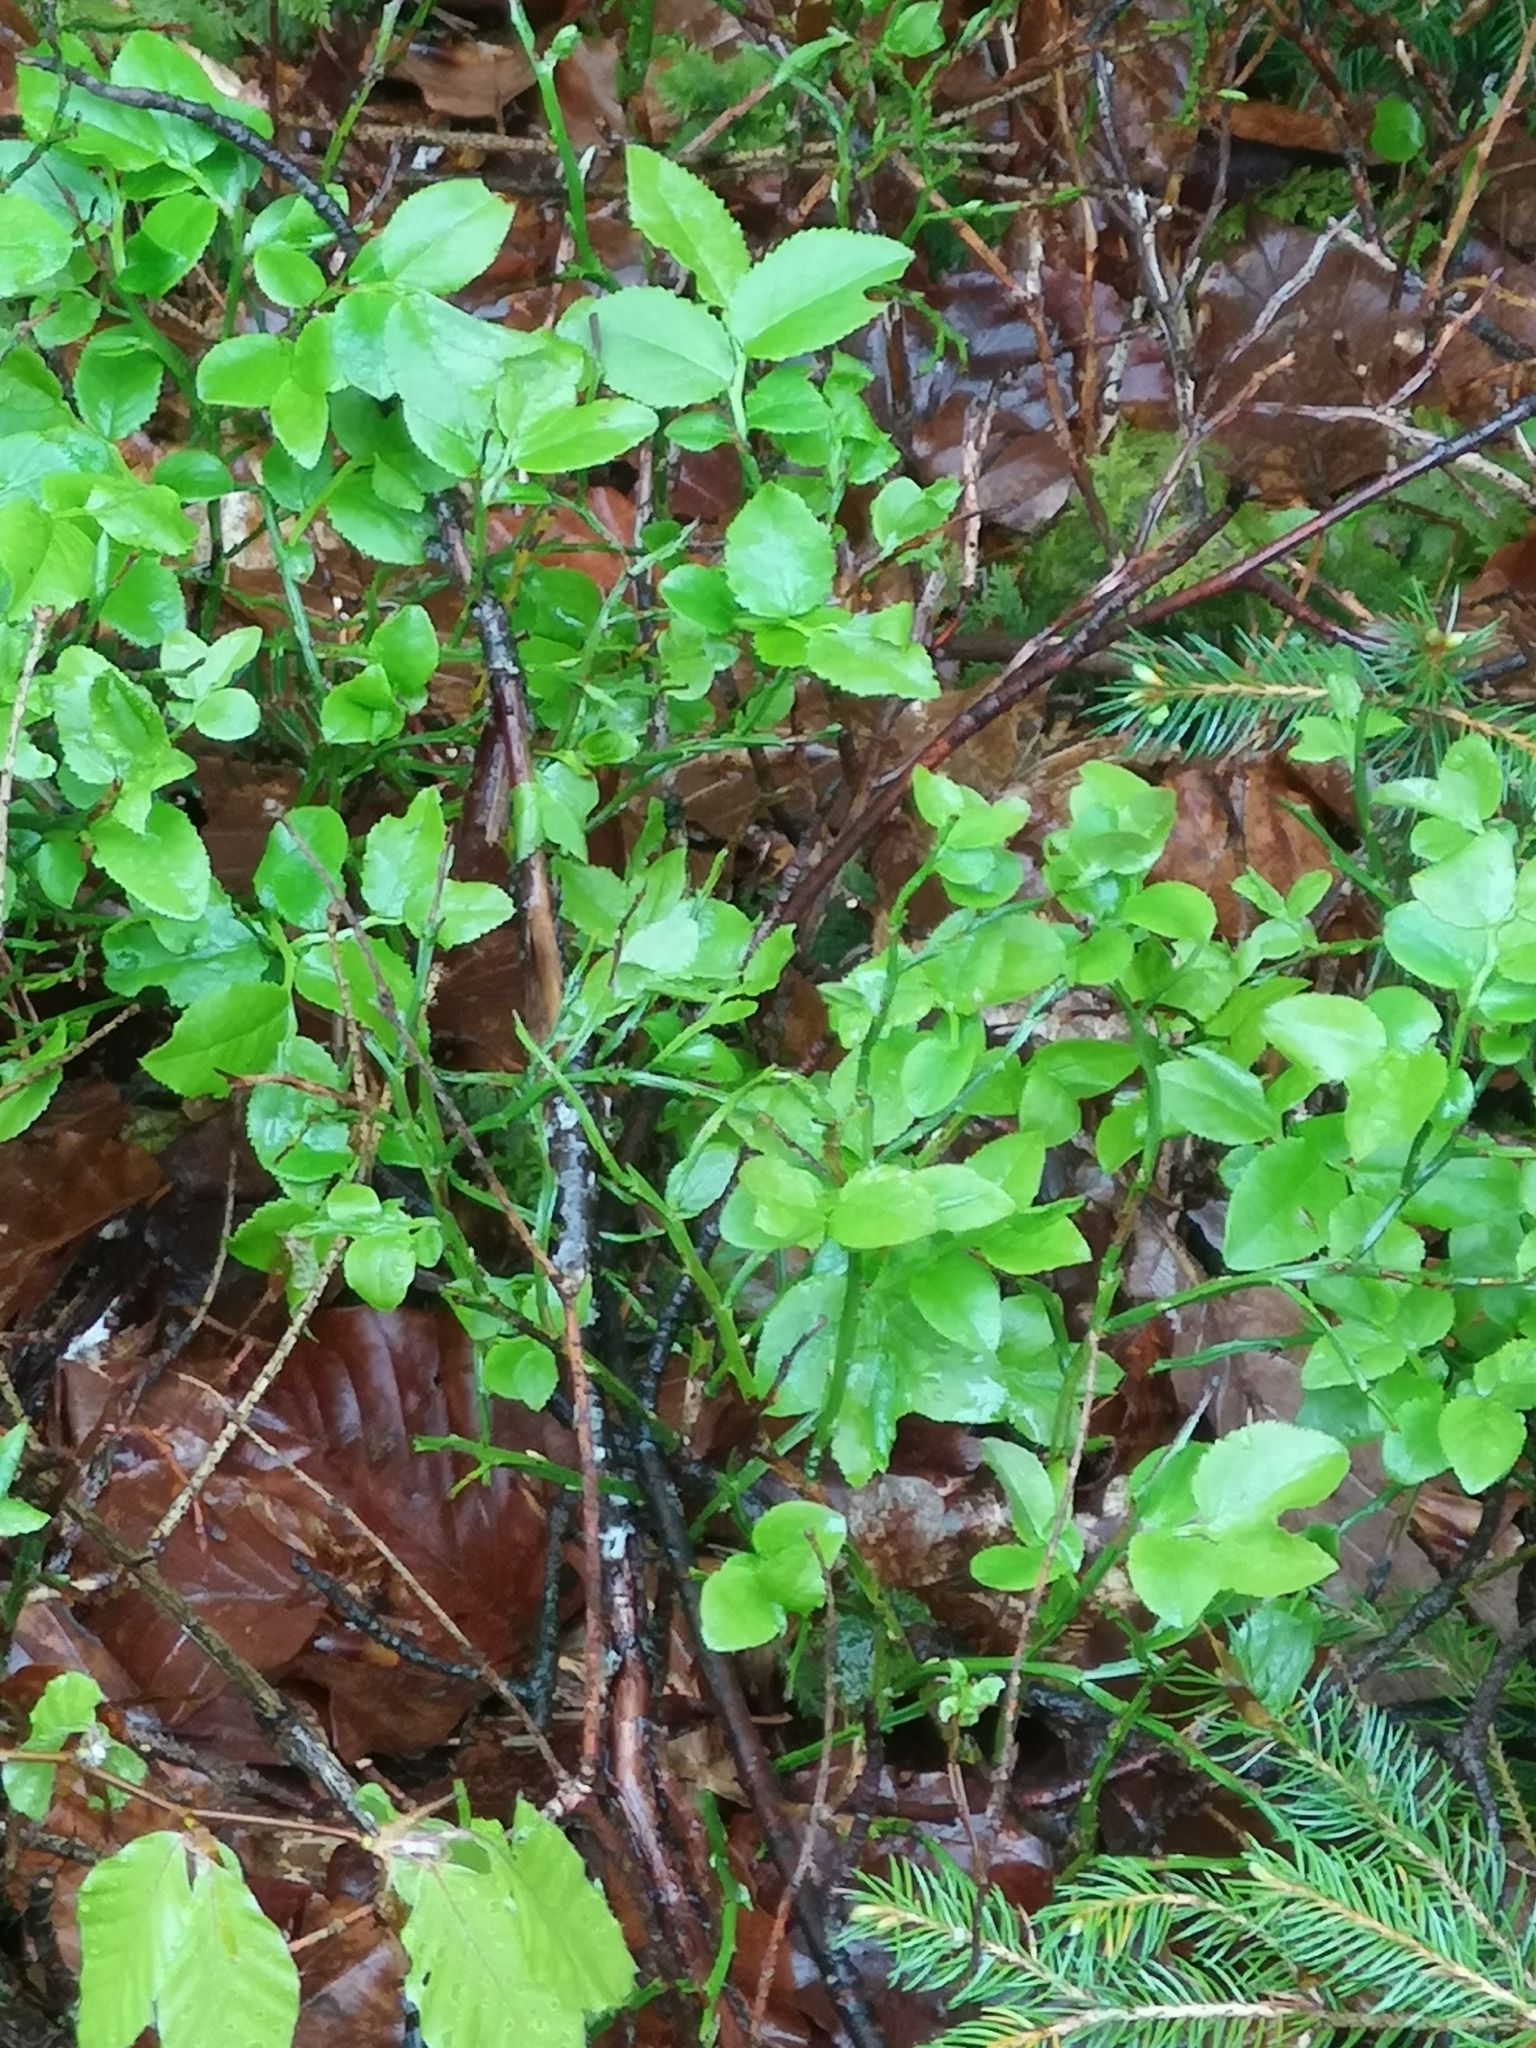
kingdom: Plantae
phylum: Tracheophyta
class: Magnoliopsida
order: Ericales
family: Ericaceae
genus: Vaccinium
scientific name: Vaccinium myrtillus
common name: Bilberry
